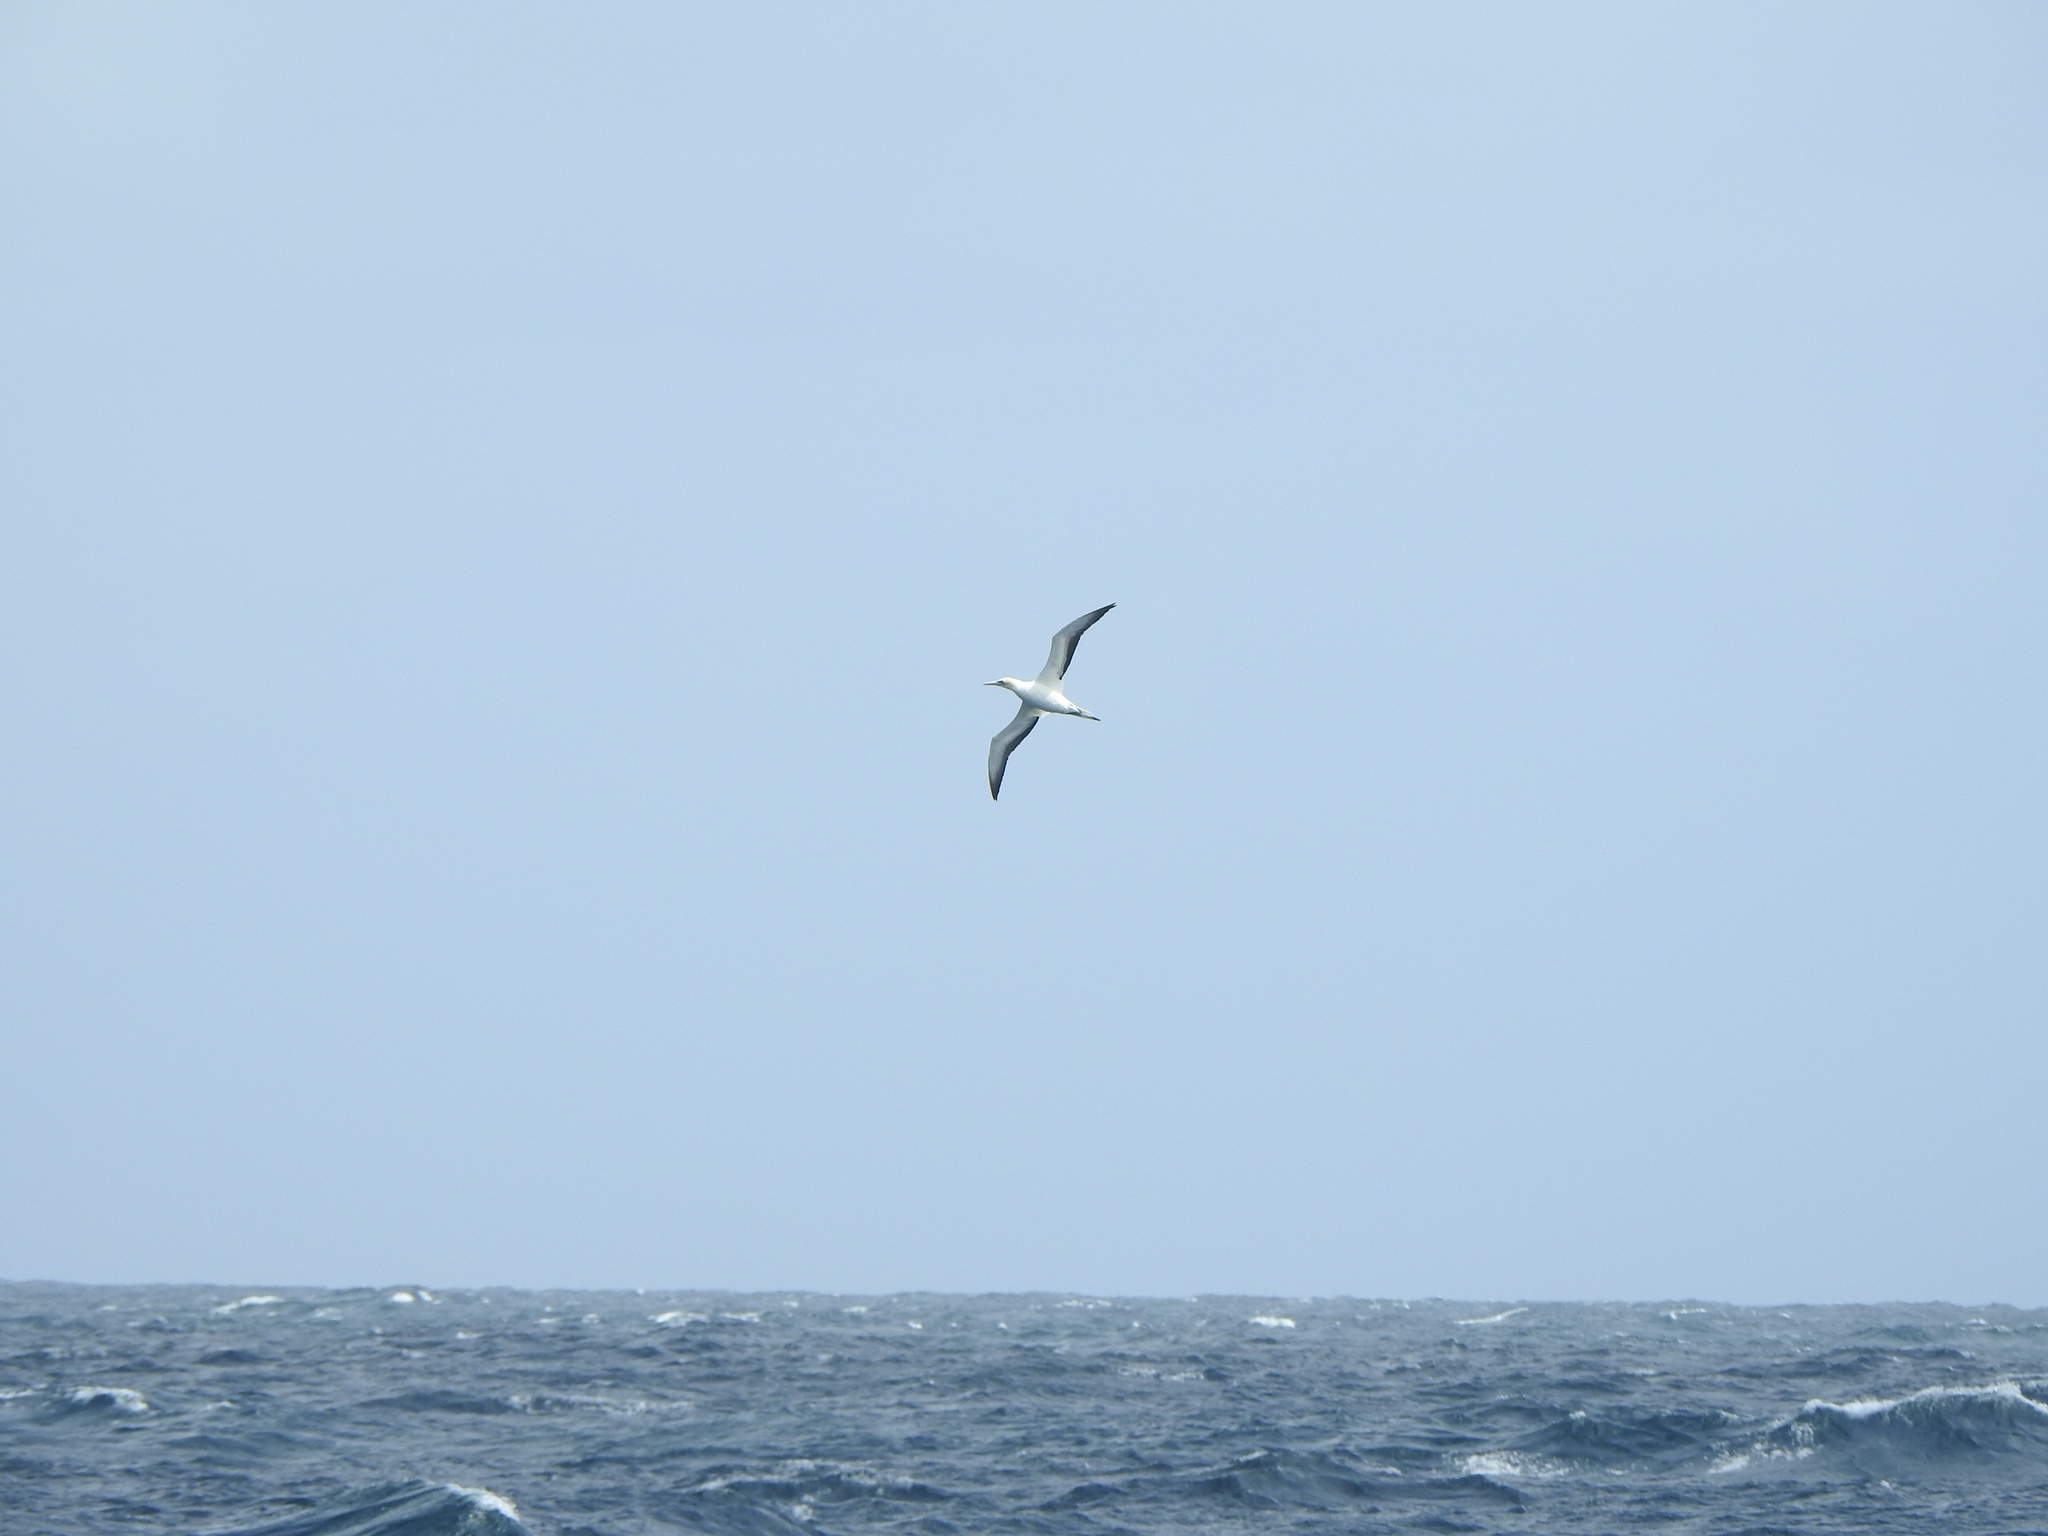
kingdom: Animalia
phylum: Chordata
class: Aves
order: Suliformes
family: Sulidae
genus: Morus
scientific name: Morus serrator
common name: Australasian gannet
